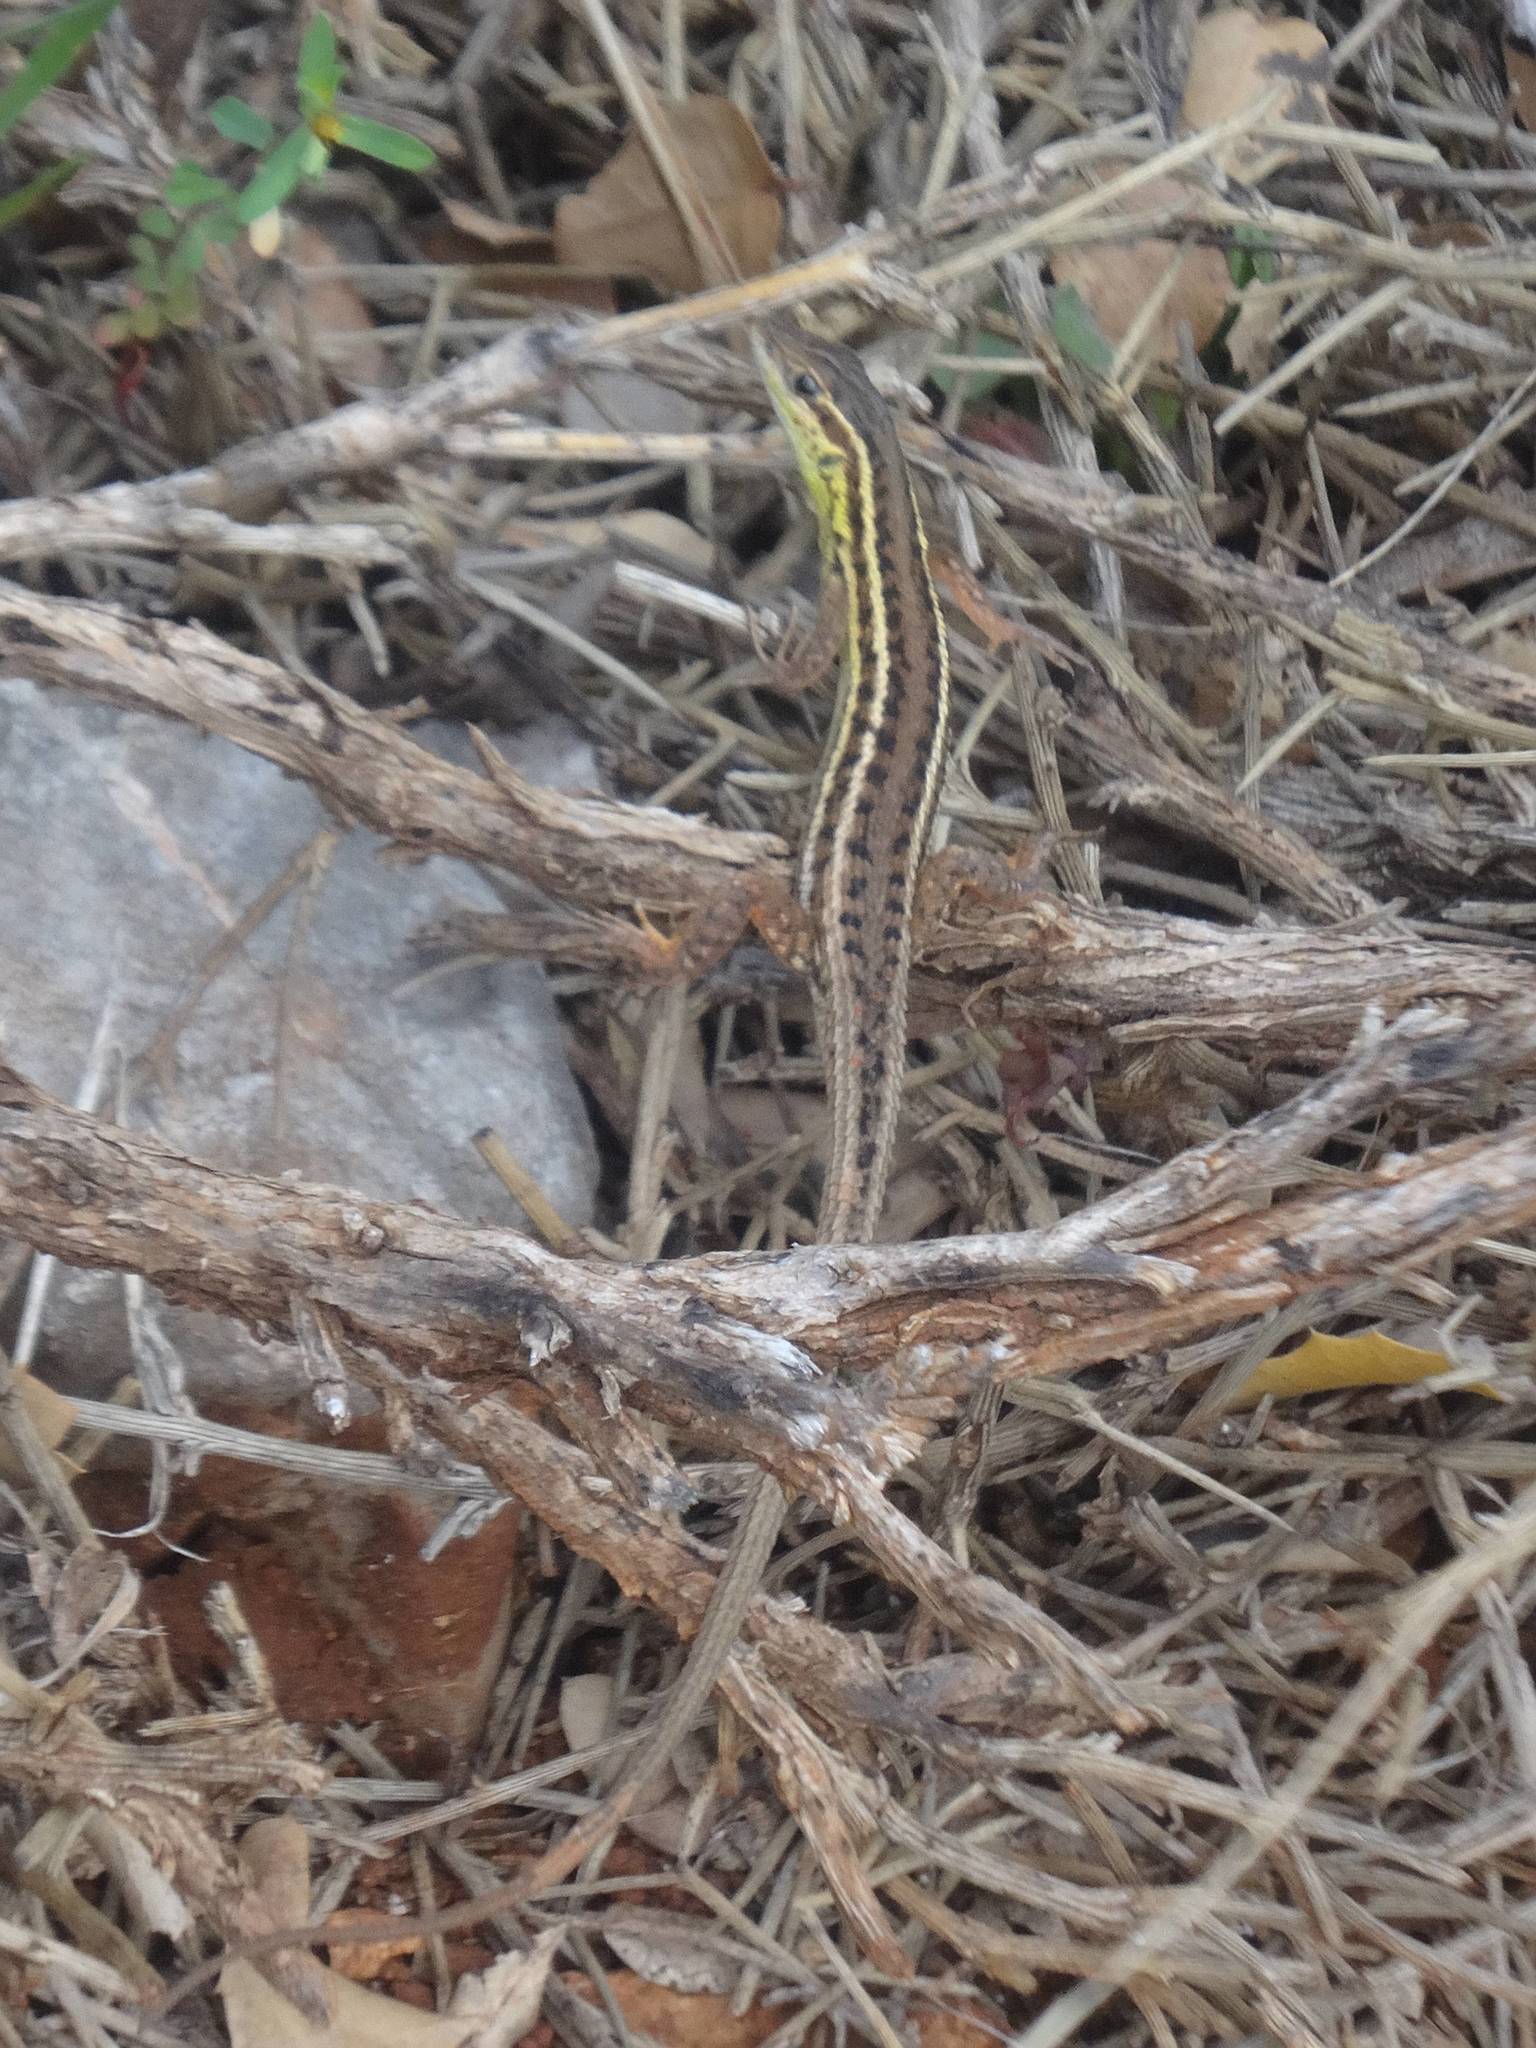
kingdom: Animalia
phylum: Chordata
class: Squamata
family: Lacertidae
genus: Ophisops
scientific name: Ophisops elegans
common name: Snake-eyed lizard
